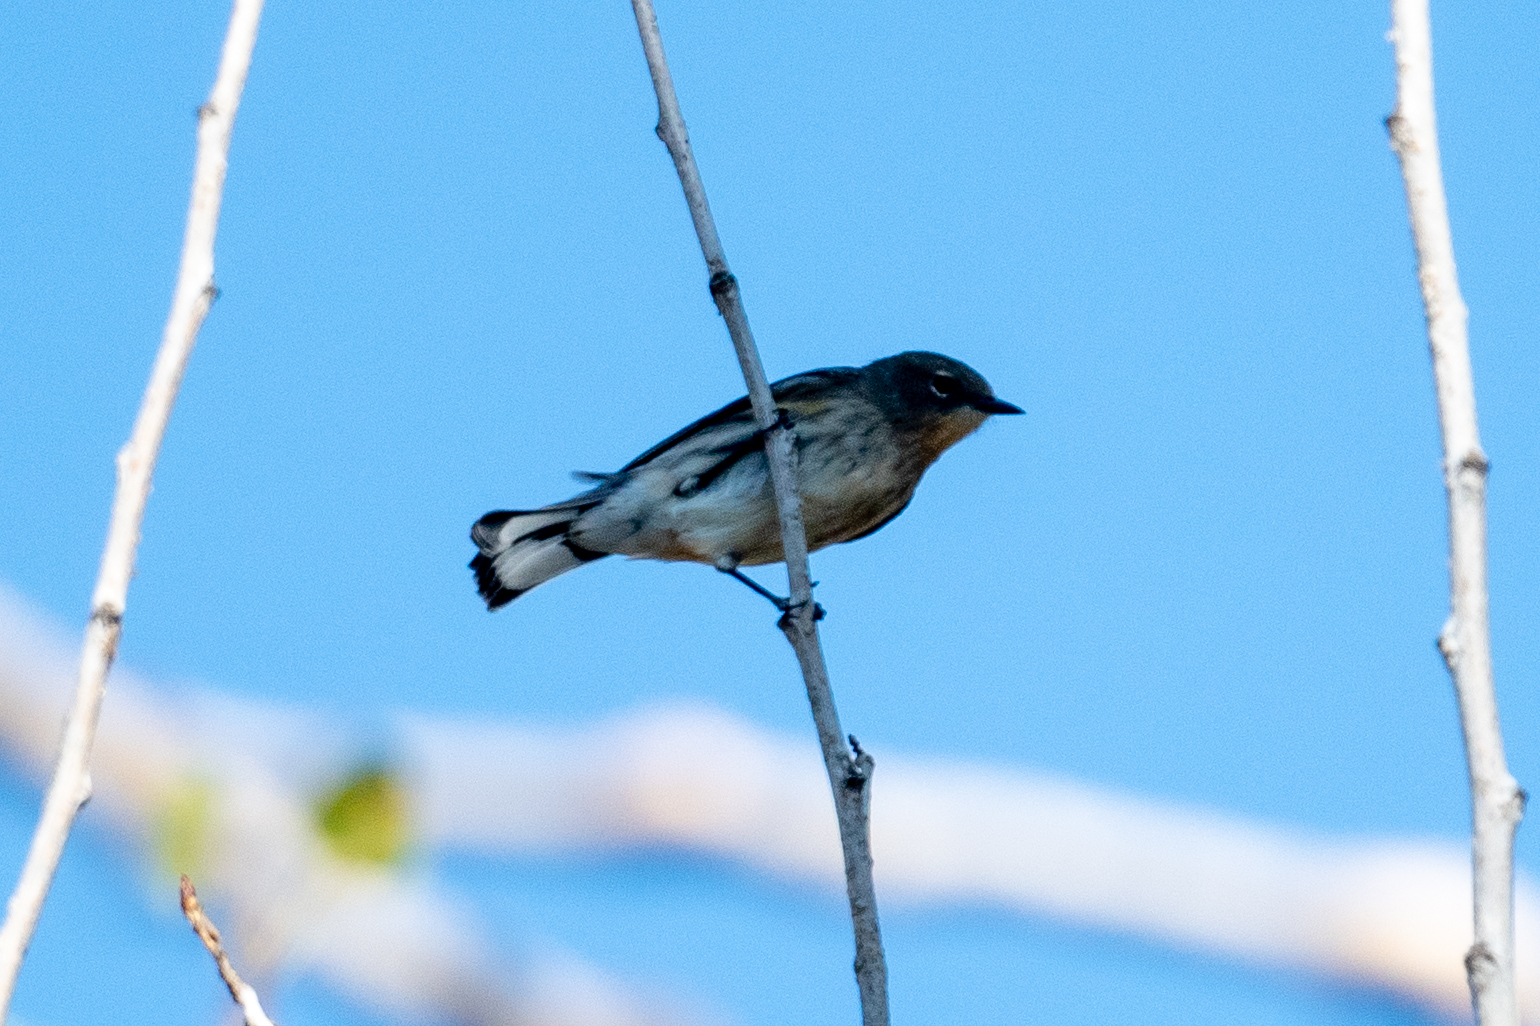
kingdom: Animalia
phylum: Chordata
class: Aves
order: Passeriformes
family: Parulidae
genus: Setophaga
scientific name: Setophaga coronata
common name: Myrtle warbler
